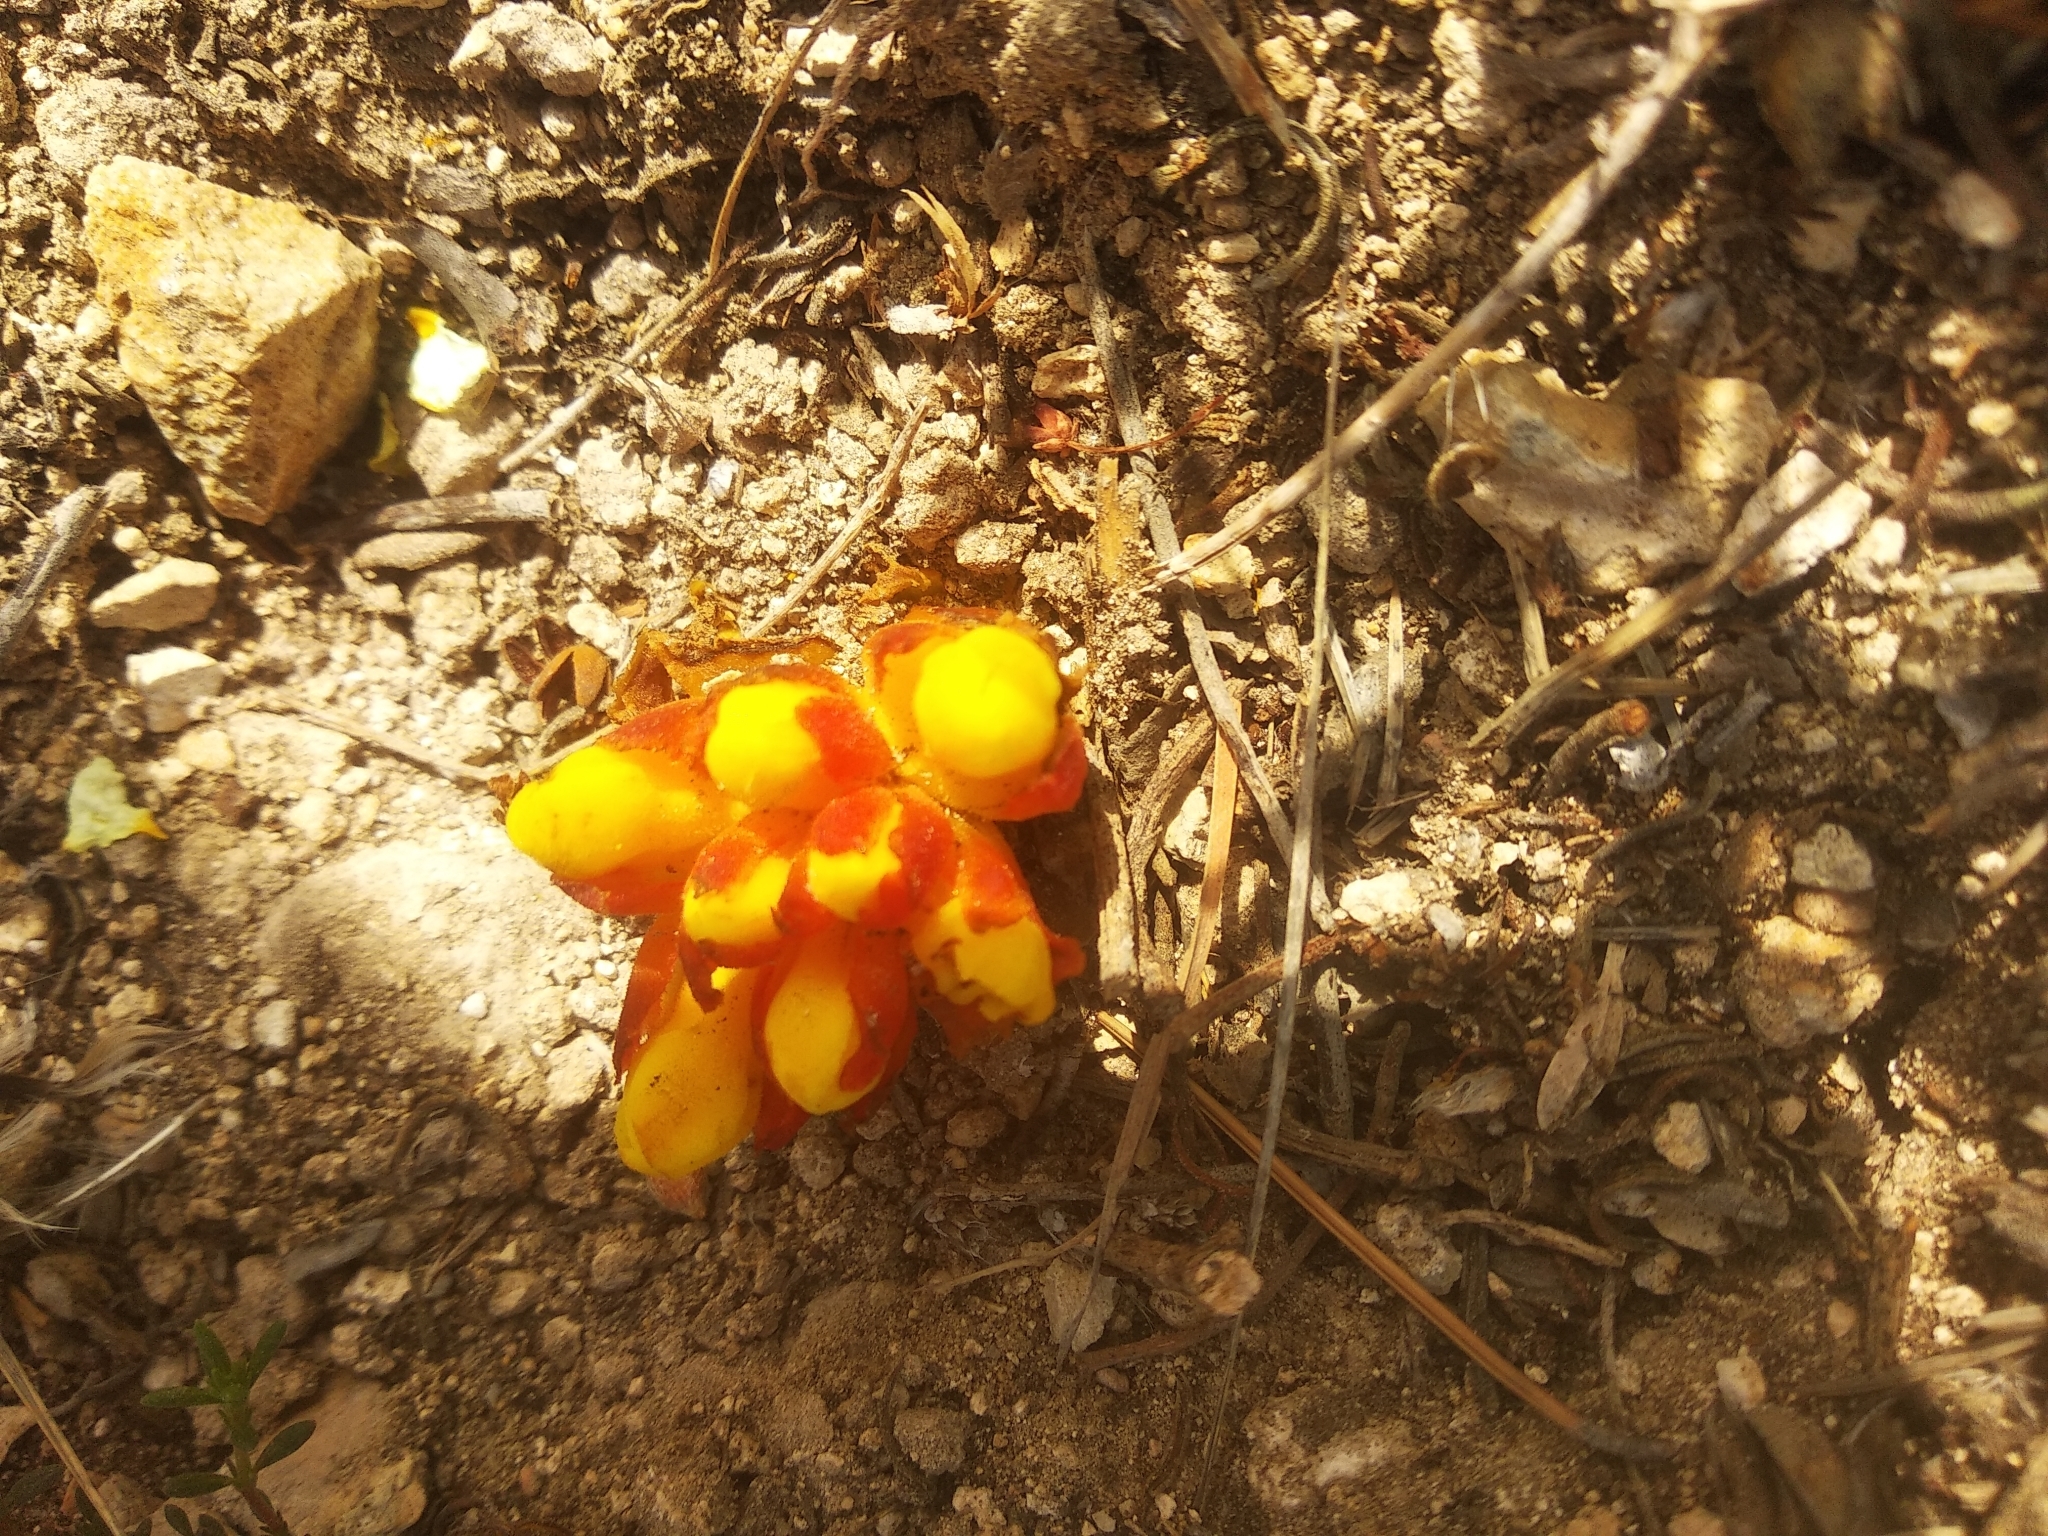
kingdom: Plantae
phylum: Tracheophyta
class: Magnoliopsida
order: Malvales
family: Cytinaceae
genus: Cytinus
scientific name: Cytinus hypocistis
